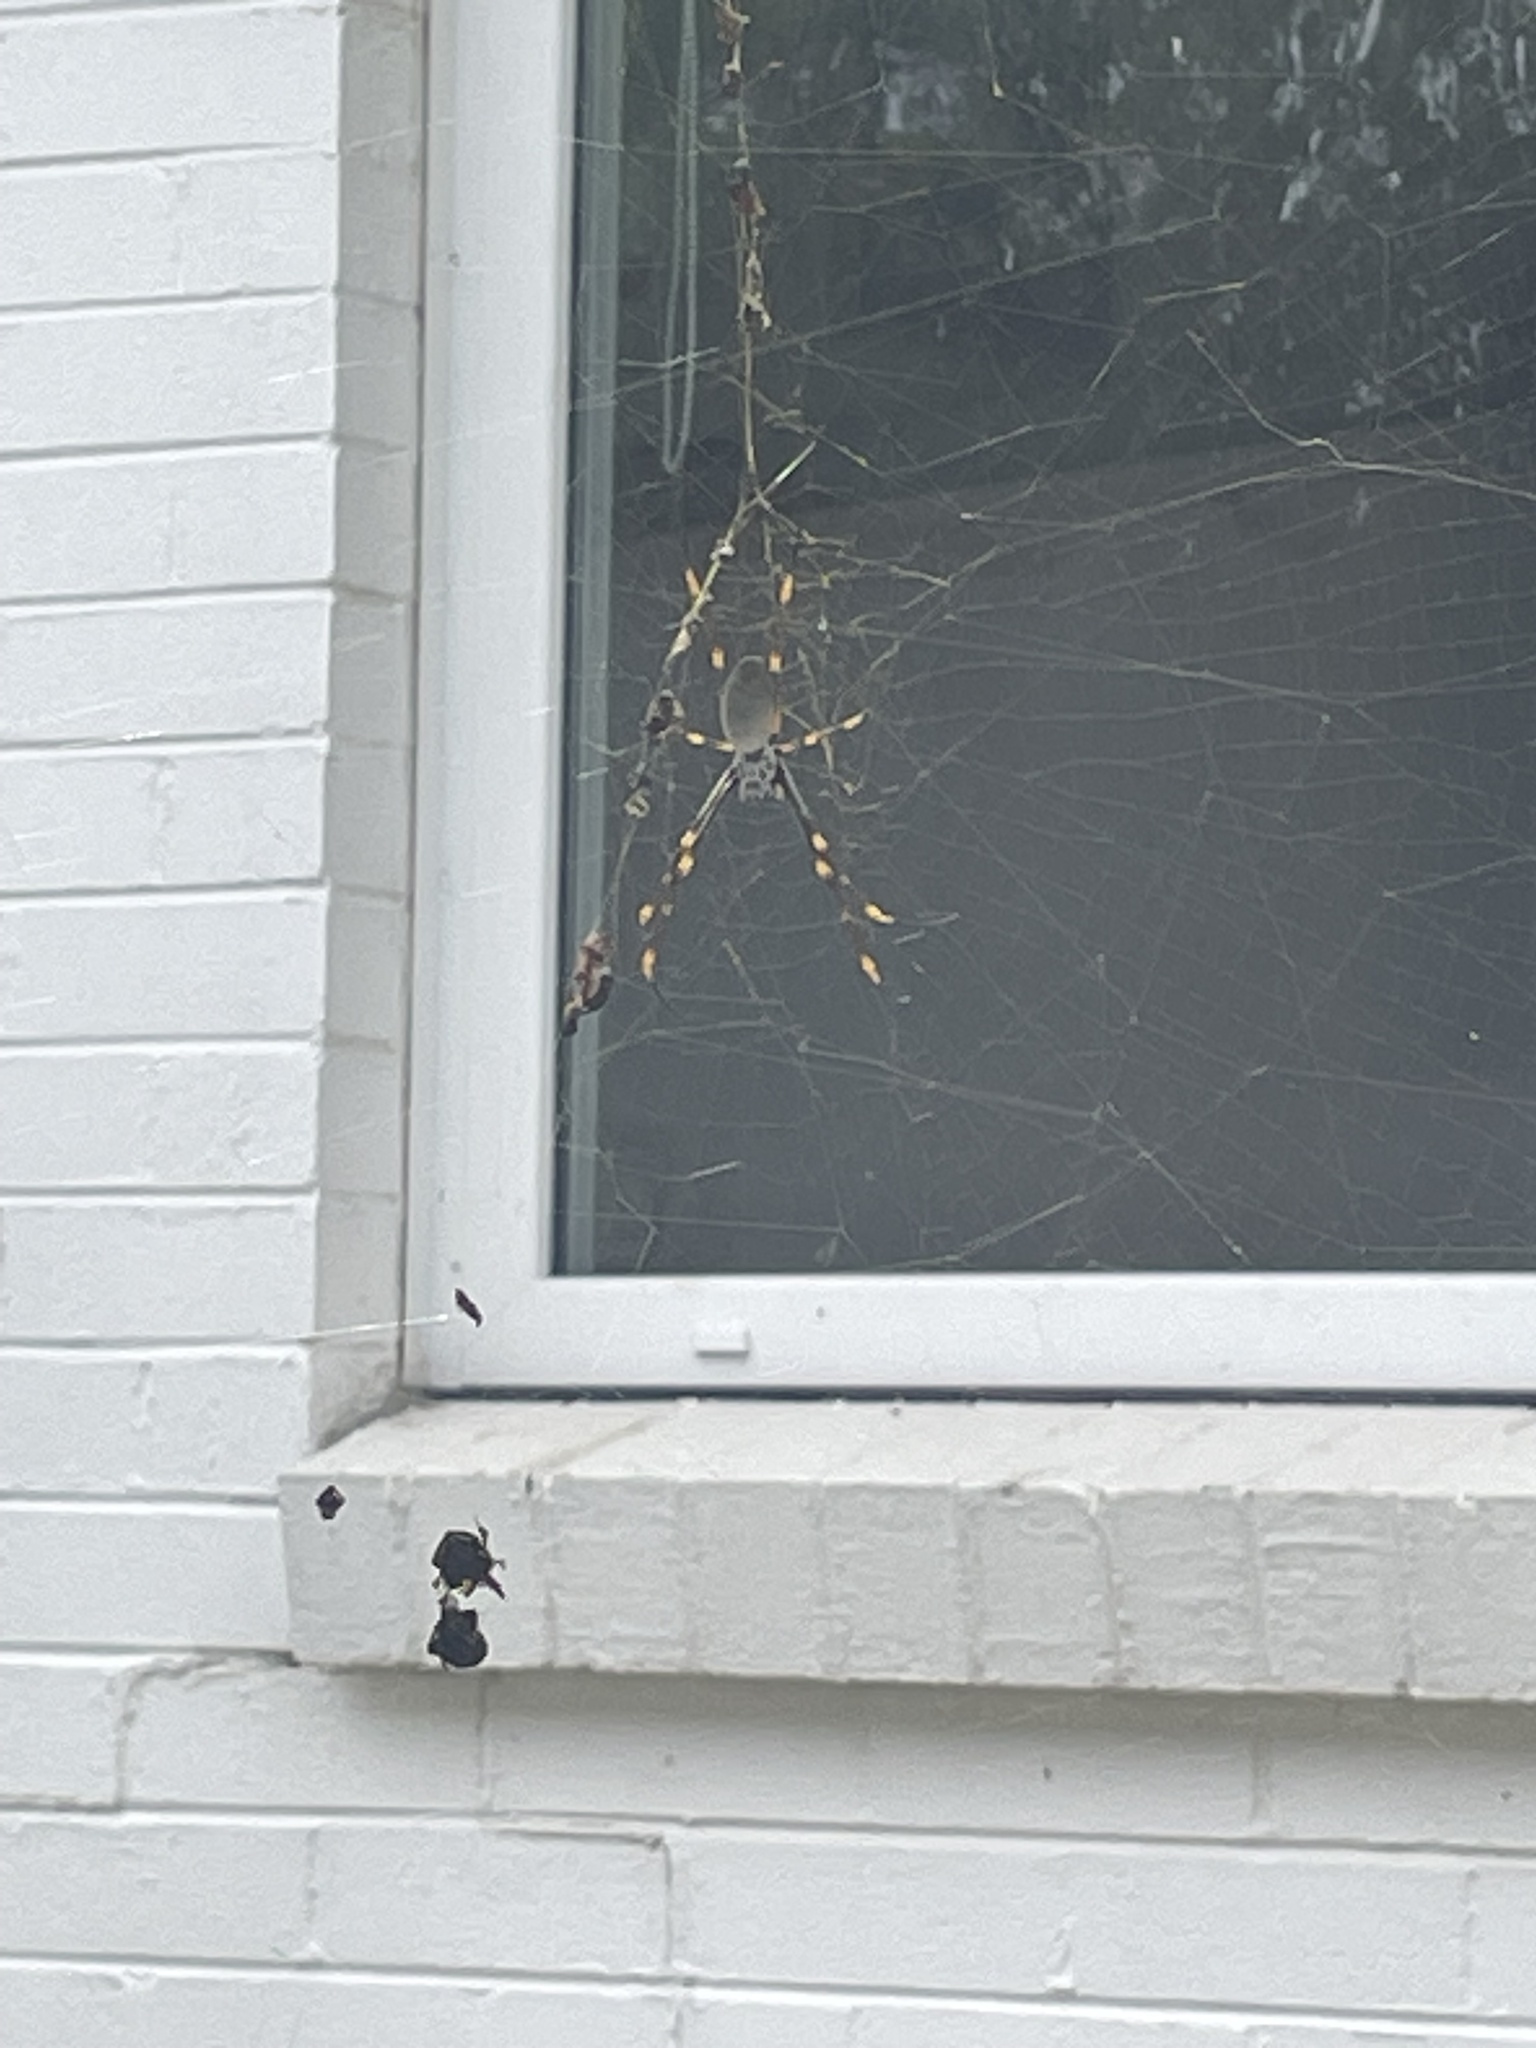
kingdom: Animalia
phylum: Arthropoda
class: Arachnida
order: Araneae
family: Araneidae
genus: Trichonephila
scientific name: Trichonephila plumipes
